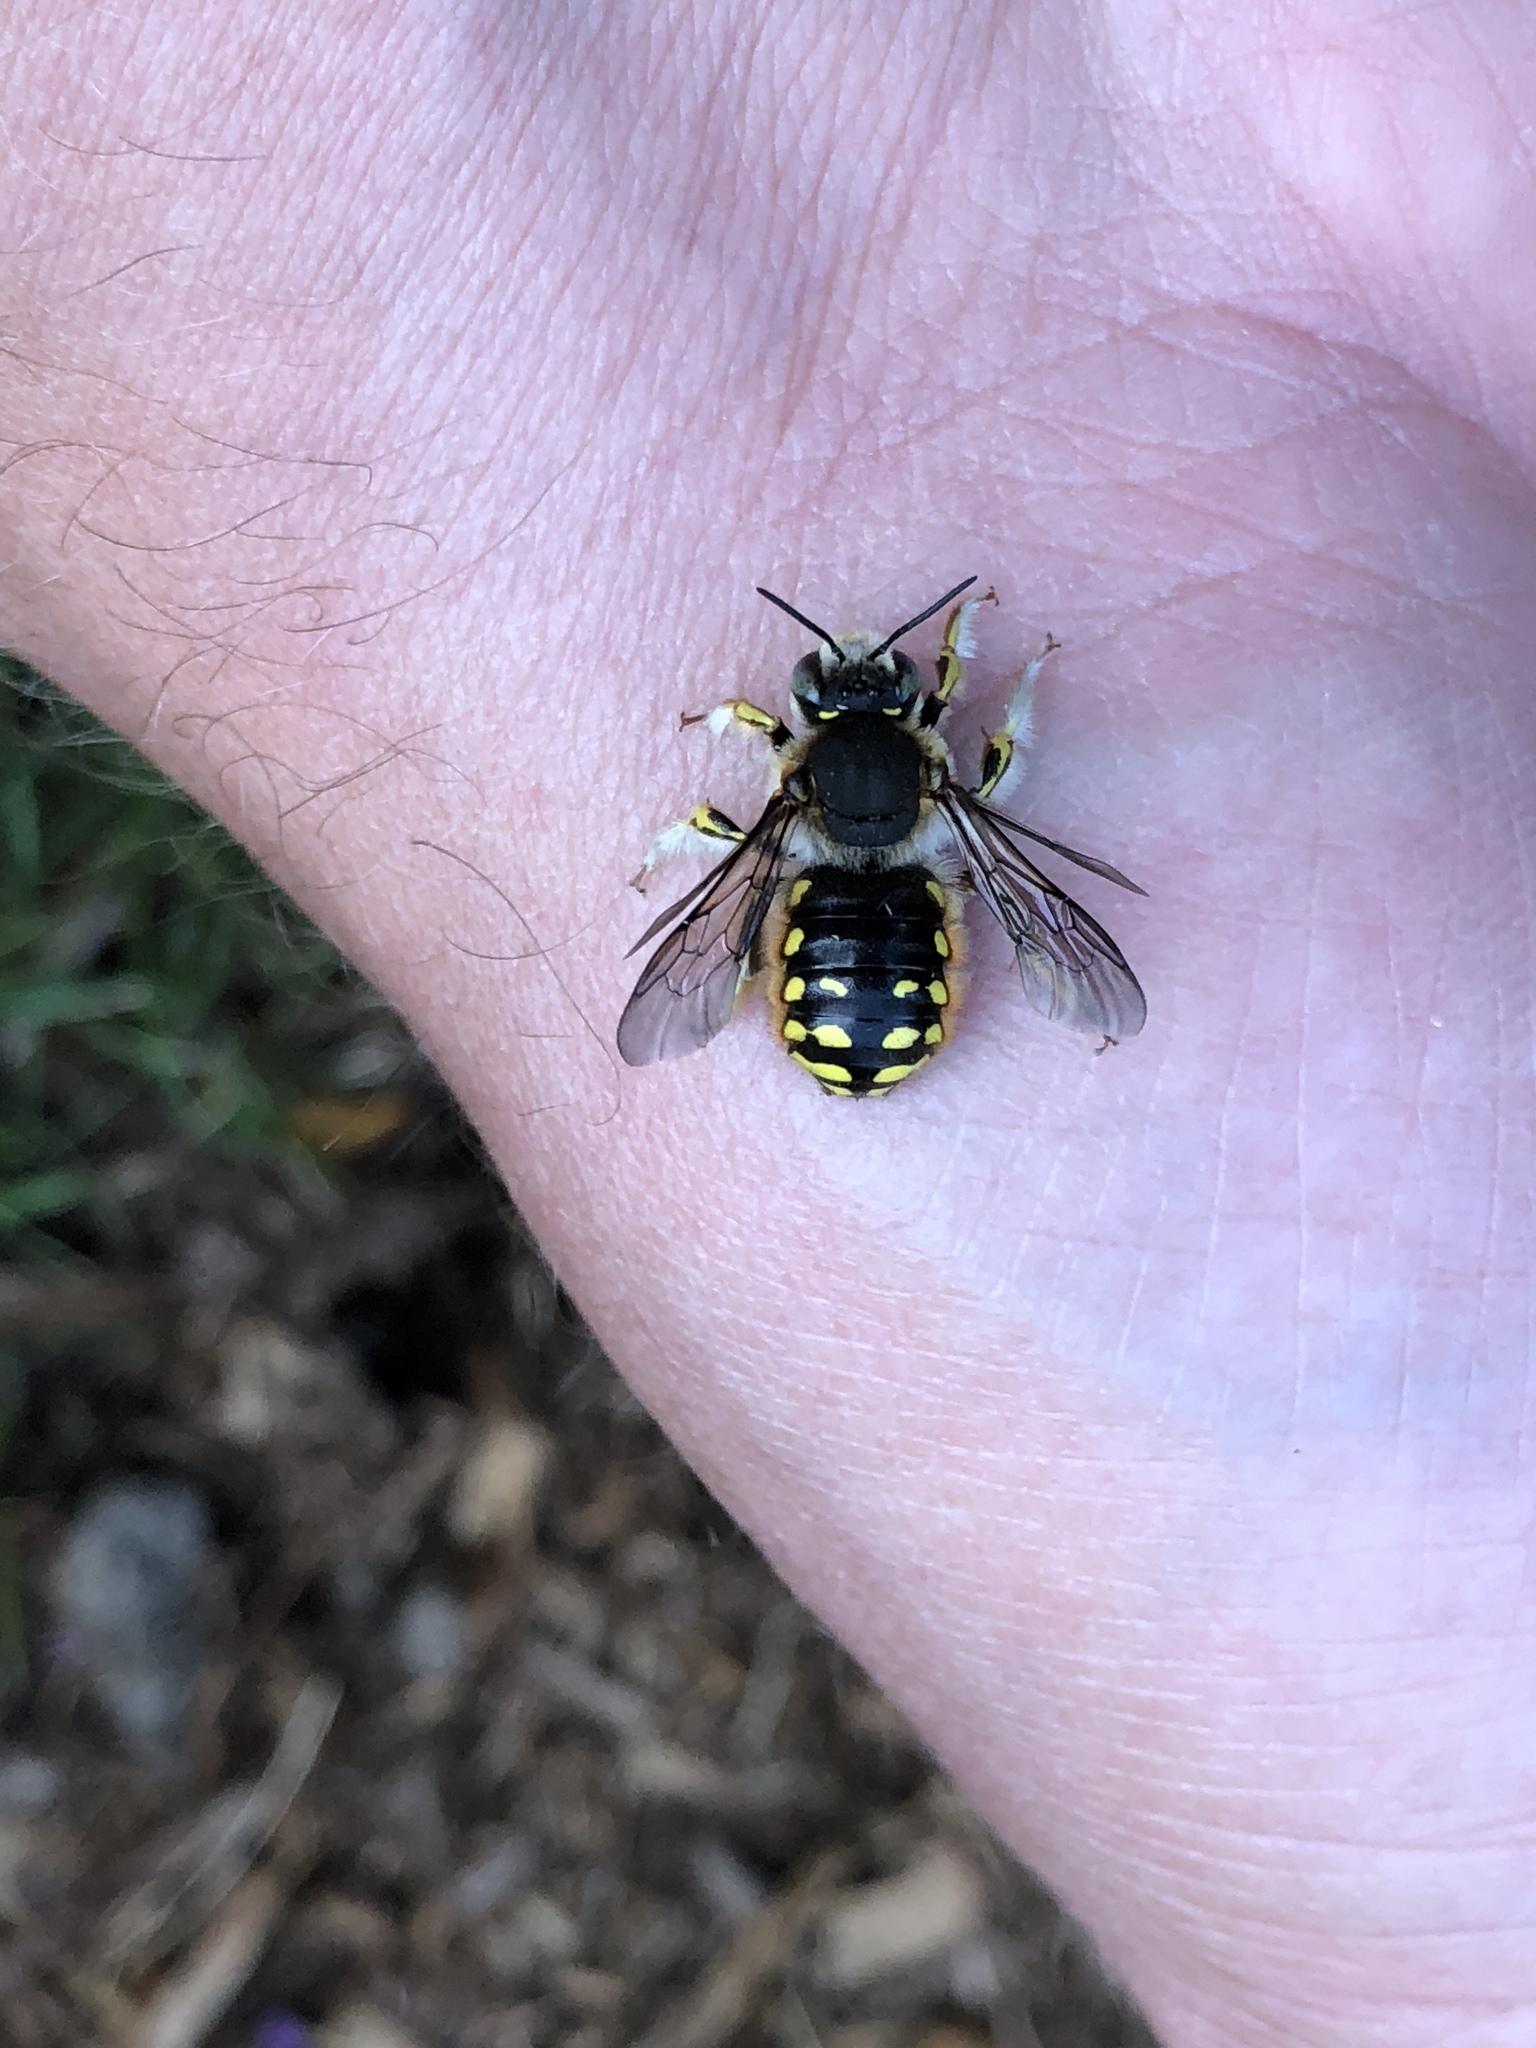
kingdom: Animalia
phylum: Arthropoda
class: Insecta
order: Hymenoptera
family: Megachilidae
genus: Anthidium
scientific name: Anthidium manicatum
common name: Wool carder bee
